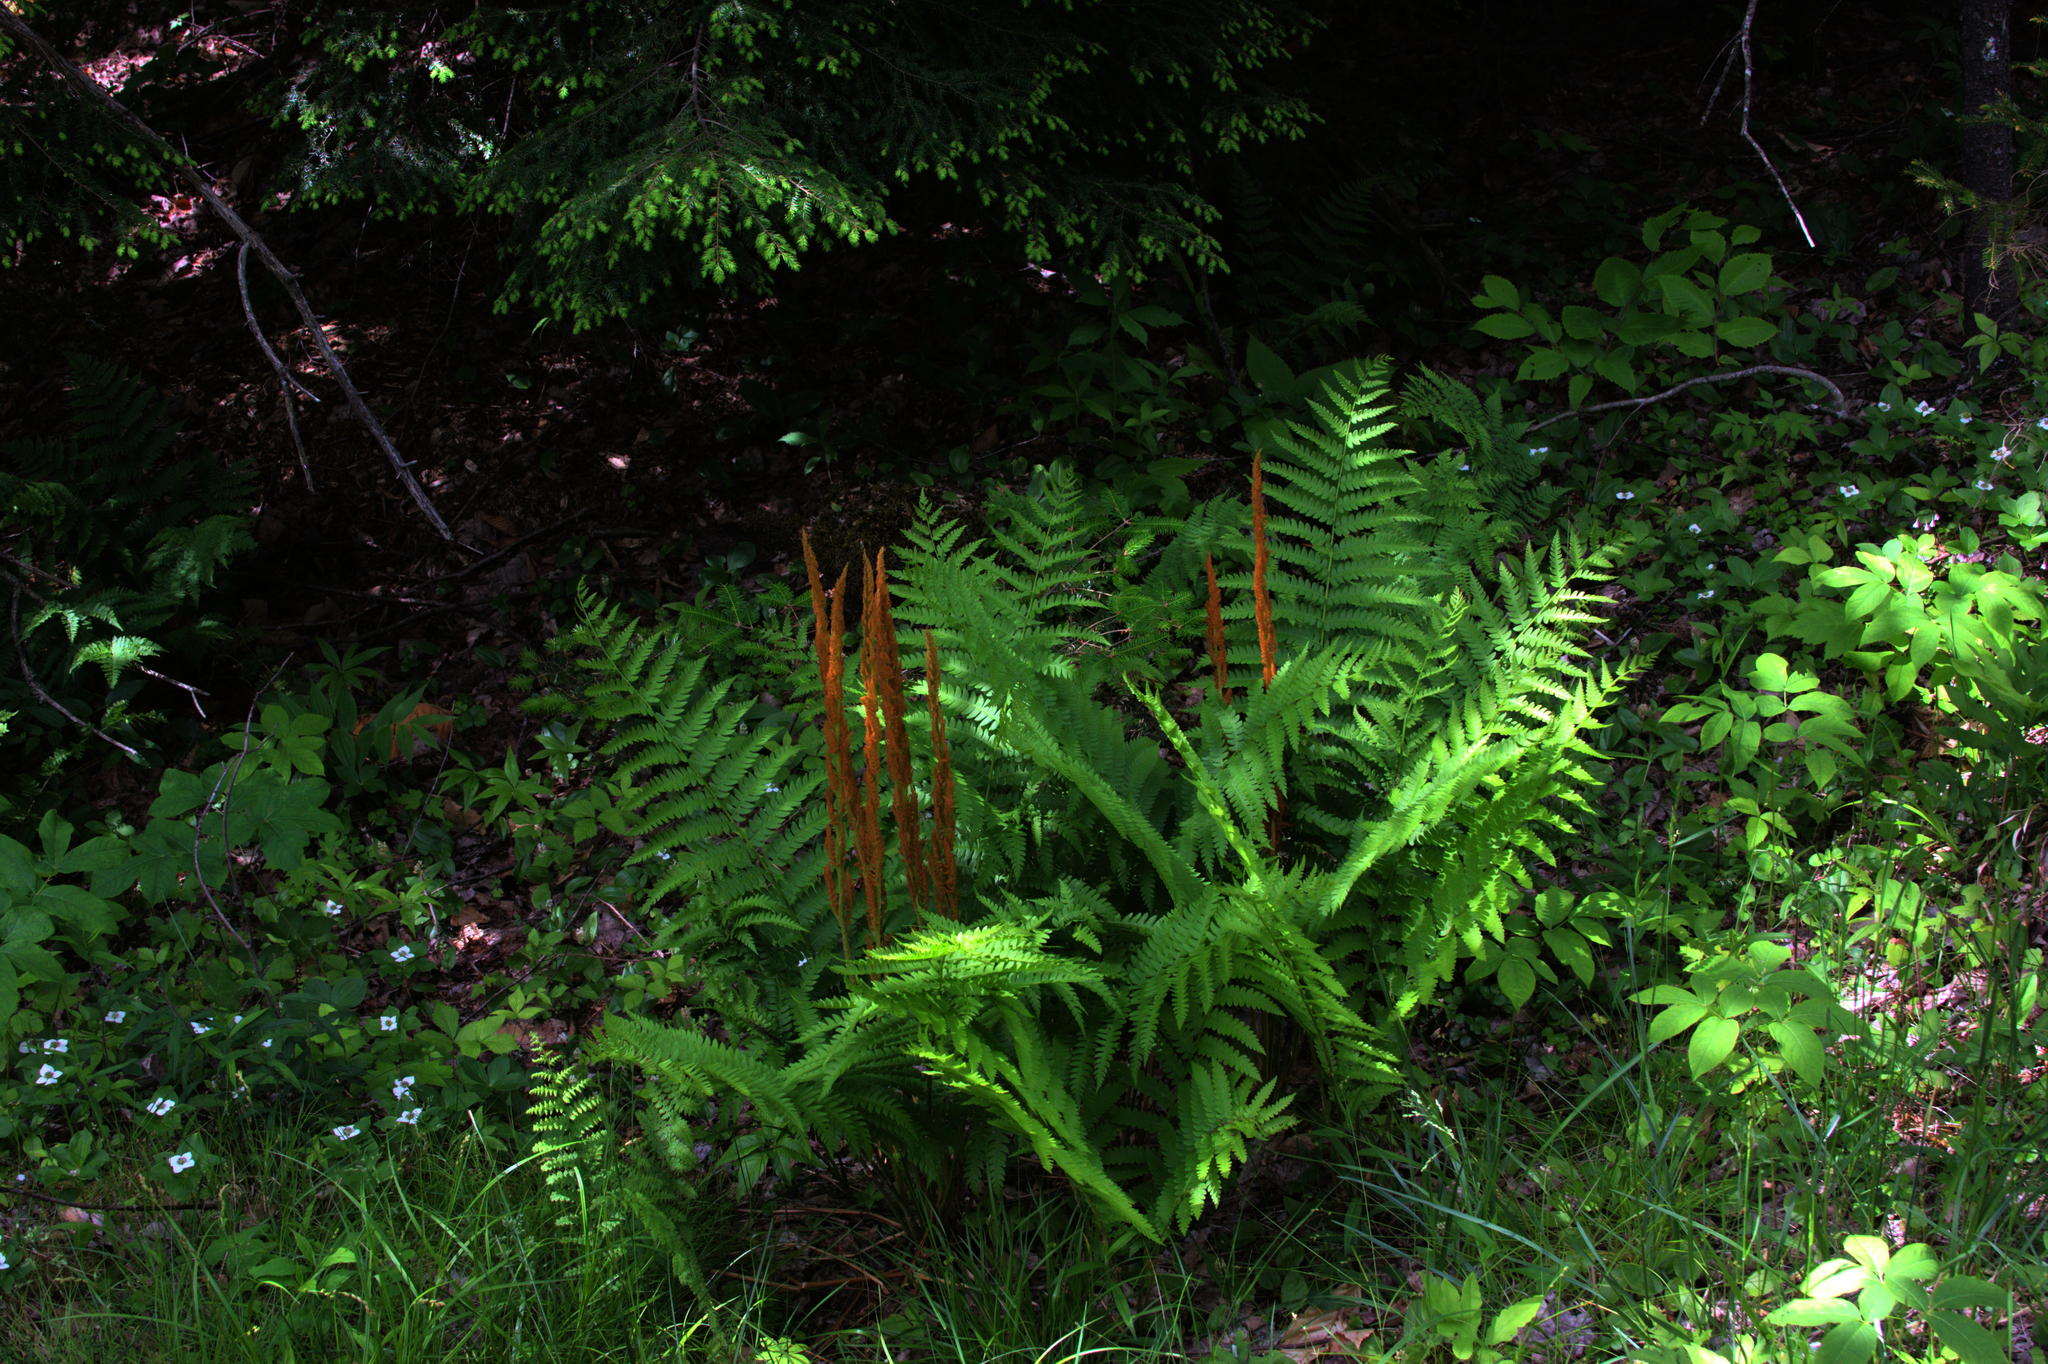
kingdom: Plantae
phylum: Tracheophyta
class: Polypodiopsida
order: Osmundales
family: Osmundaceae
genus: Osmundastrum
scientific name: Osmundastrum cinnamomeum
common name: Cinnamon fern
